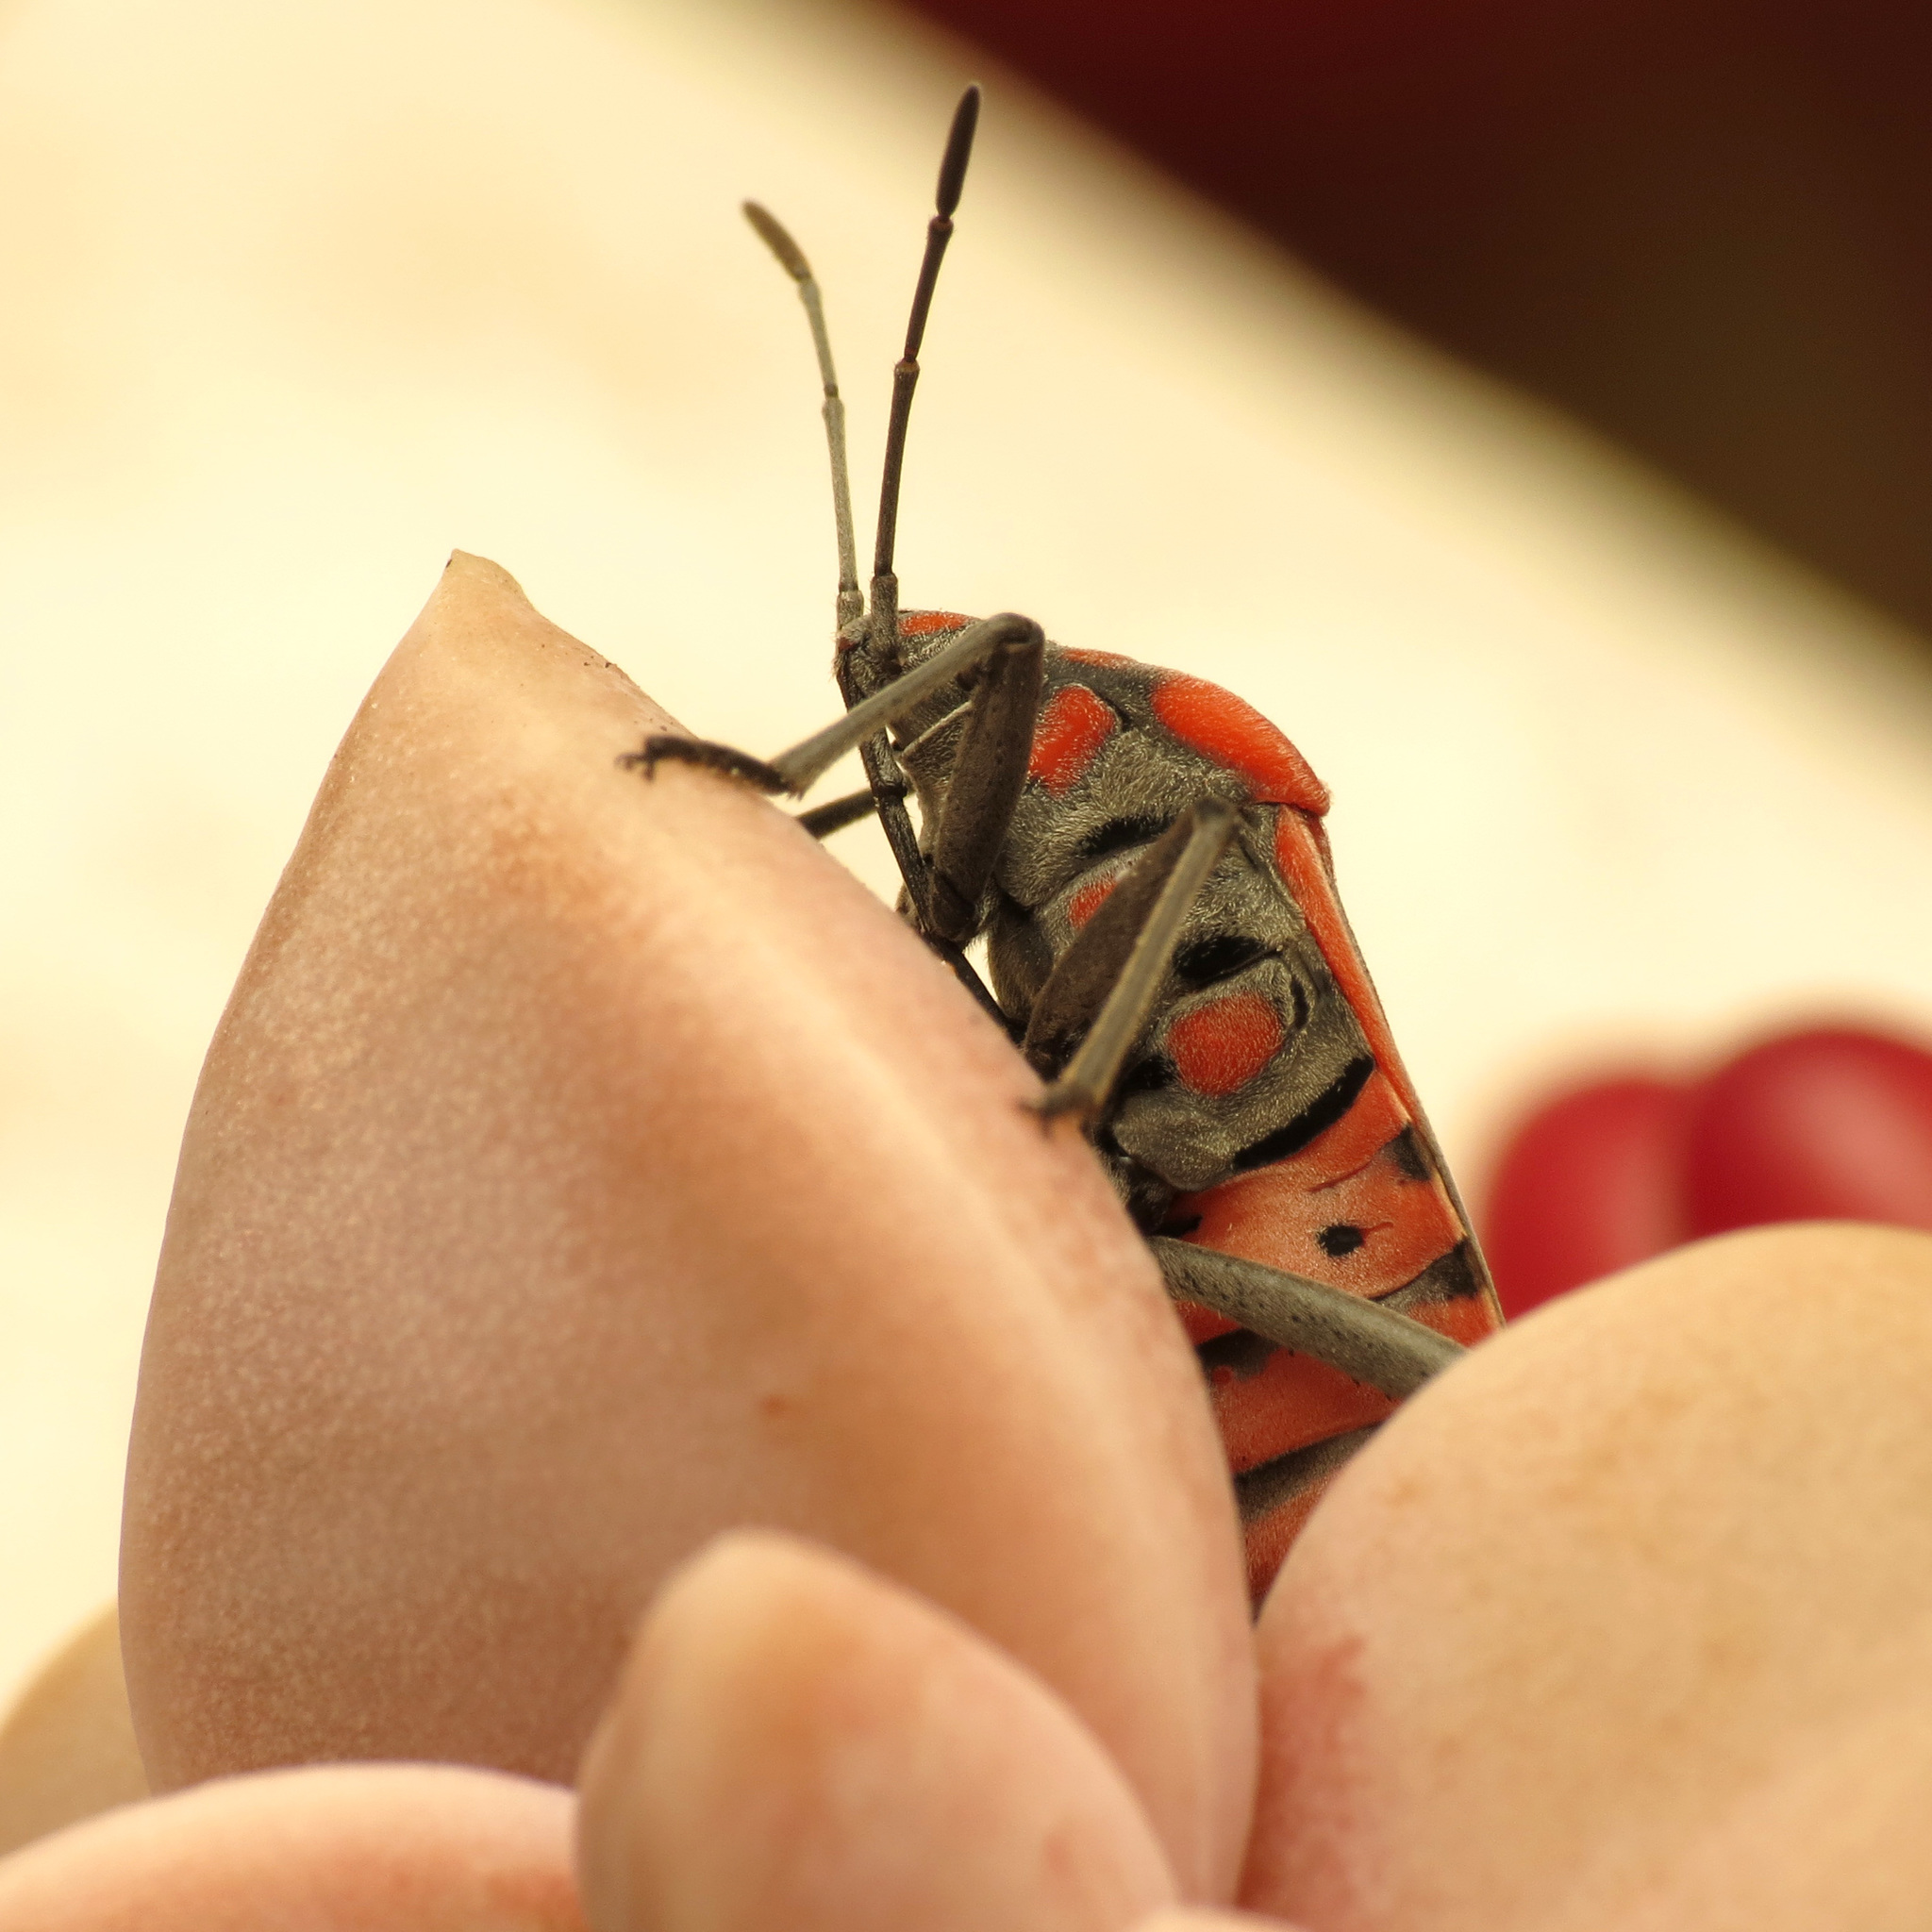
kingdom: Animalia
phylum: Arthropoda
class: Insecta
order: Hemiptera
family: Lygaeidae
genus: Spilostethus
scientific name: Spilostethus pandurus
